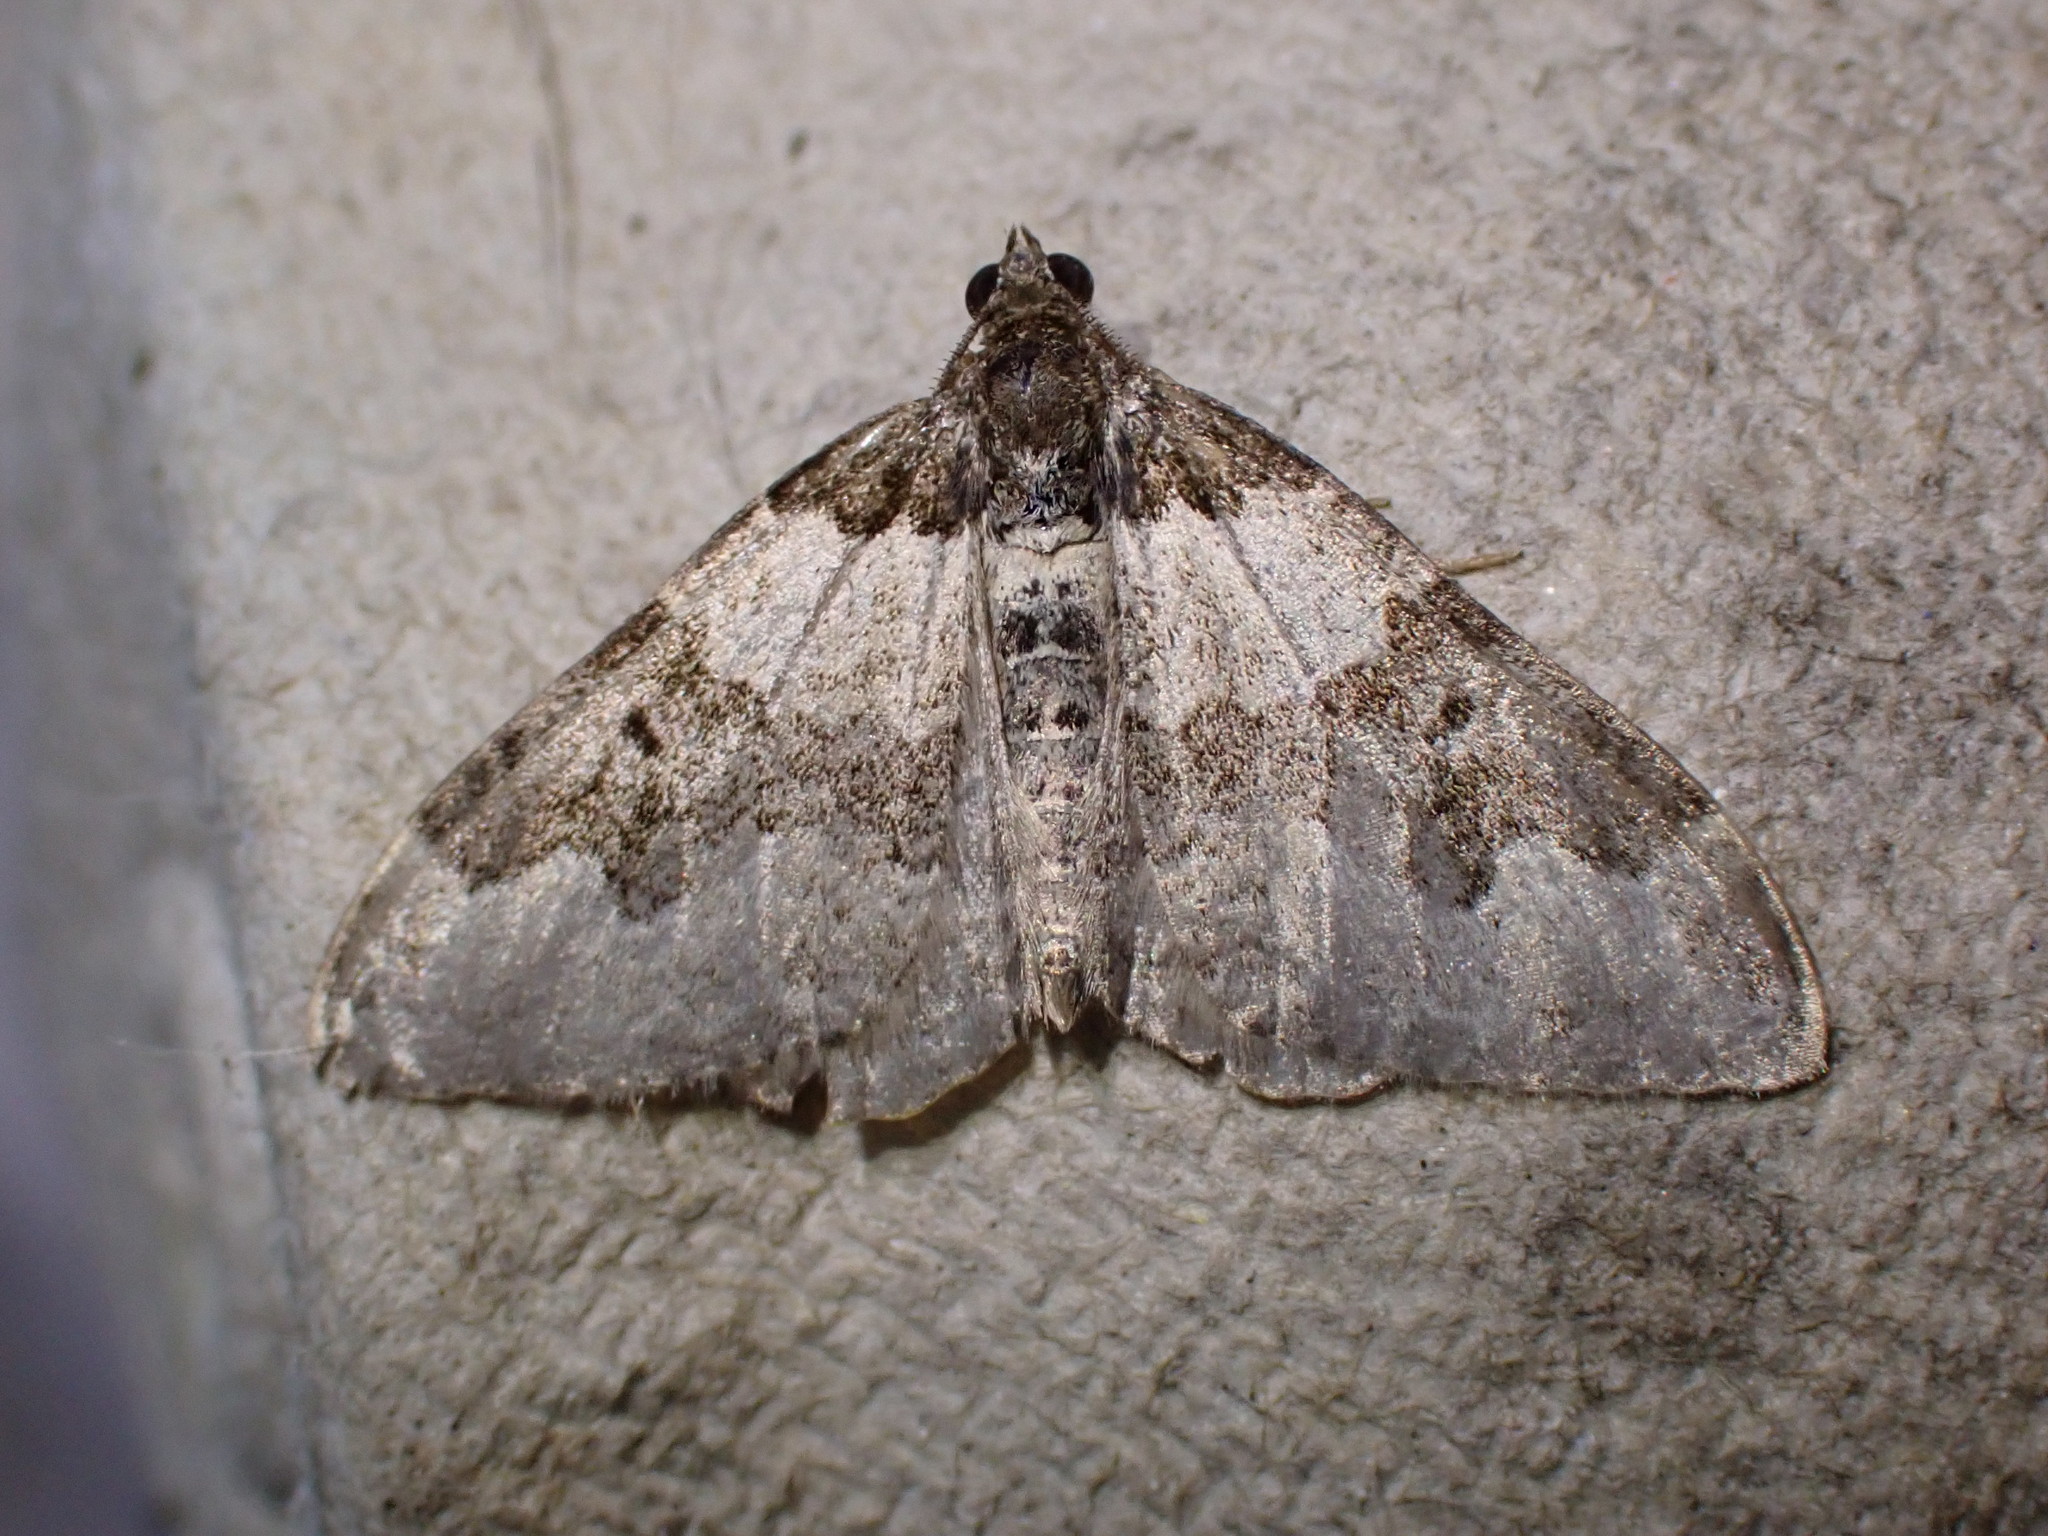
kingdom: Animalia
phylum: Arthropoda
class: Insecta
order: Lepidoptera
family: Geometridae
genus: Xanthorhoe
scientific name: Xanthorhoe fluctuata
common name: Garden carpet
